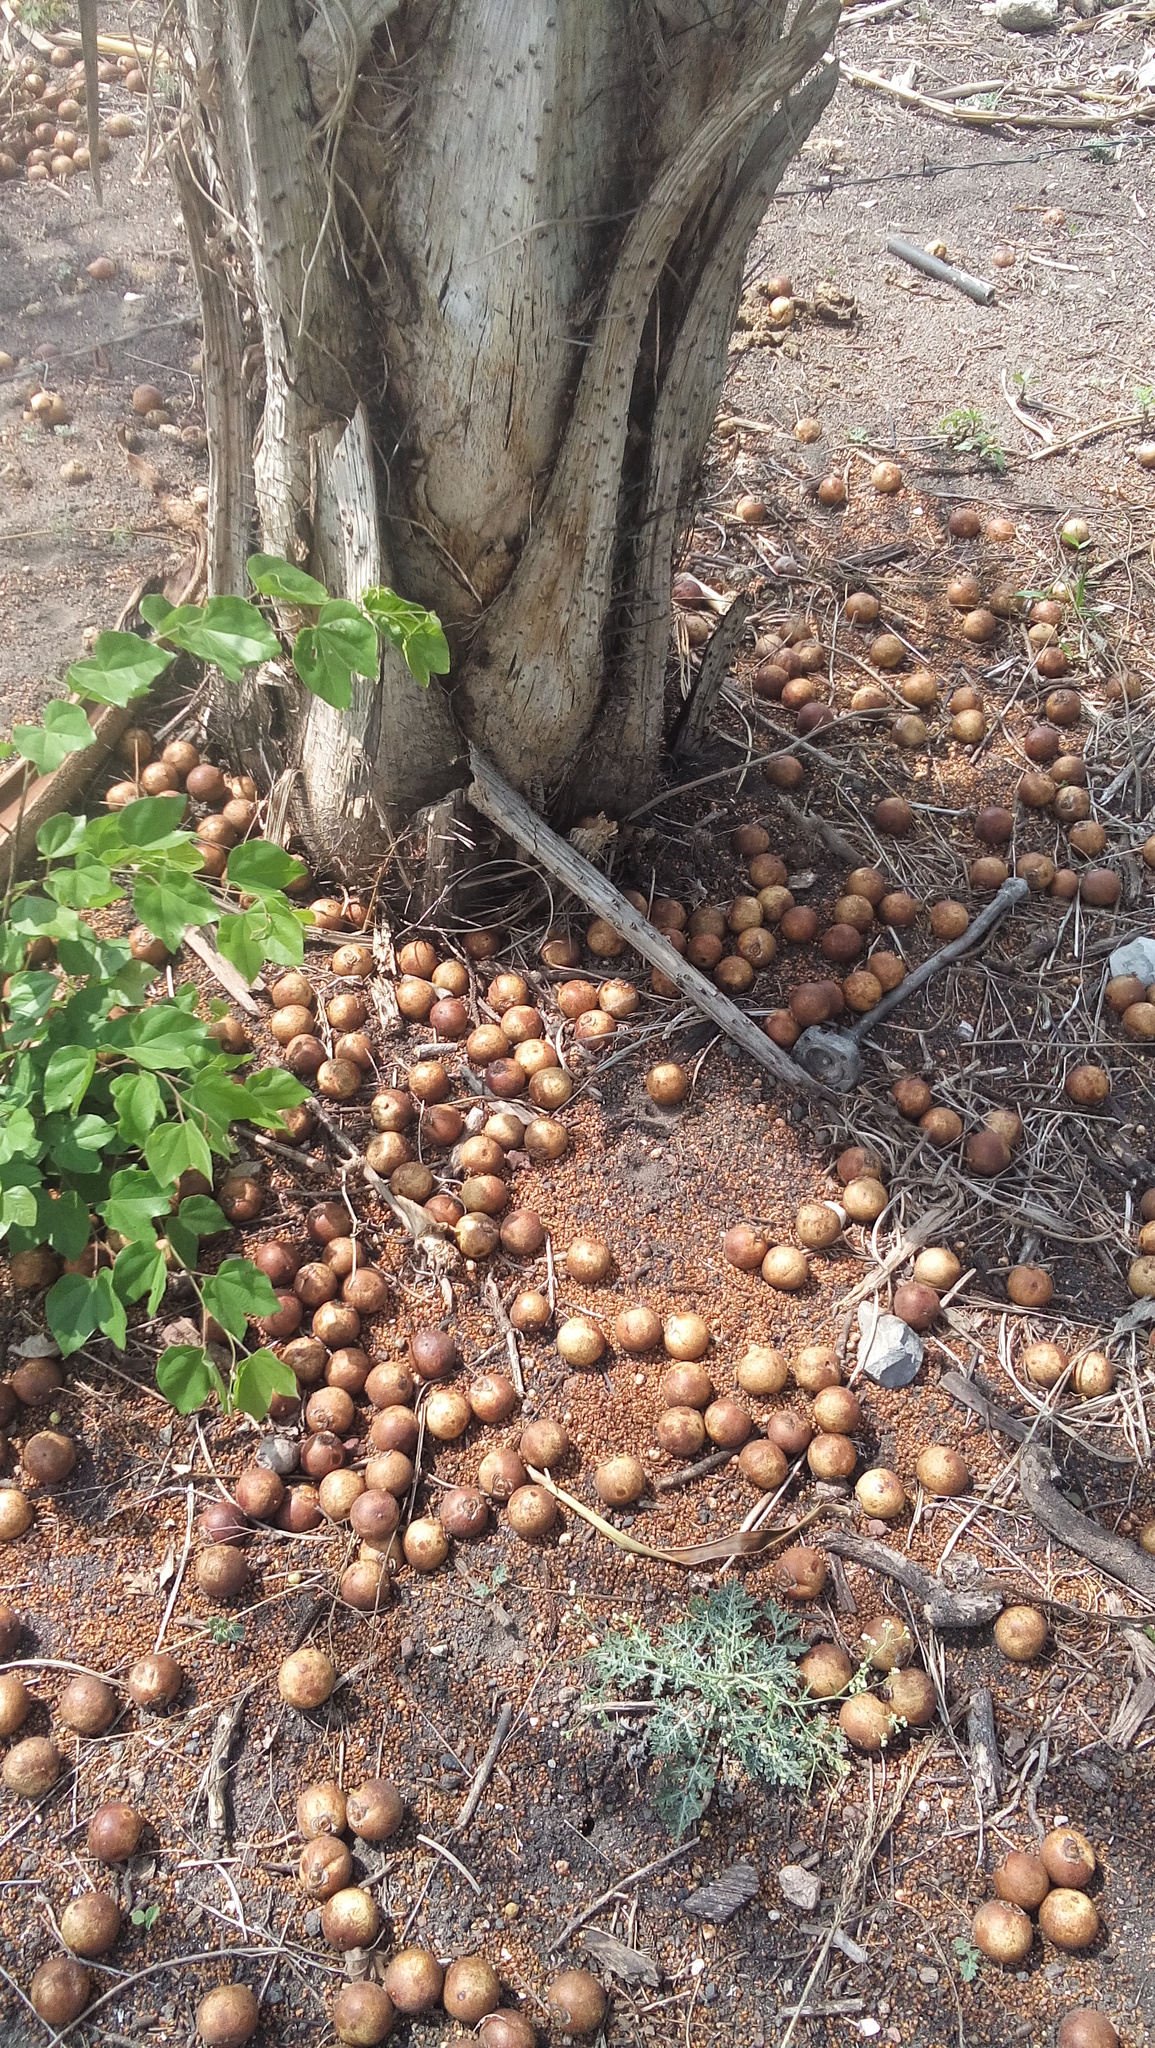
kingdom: Plantae
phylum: Tracheophyta
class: Liliopsida
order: Arecales
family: Arecaceae
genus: Acrocomia
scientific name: Acrocomia aculeata
